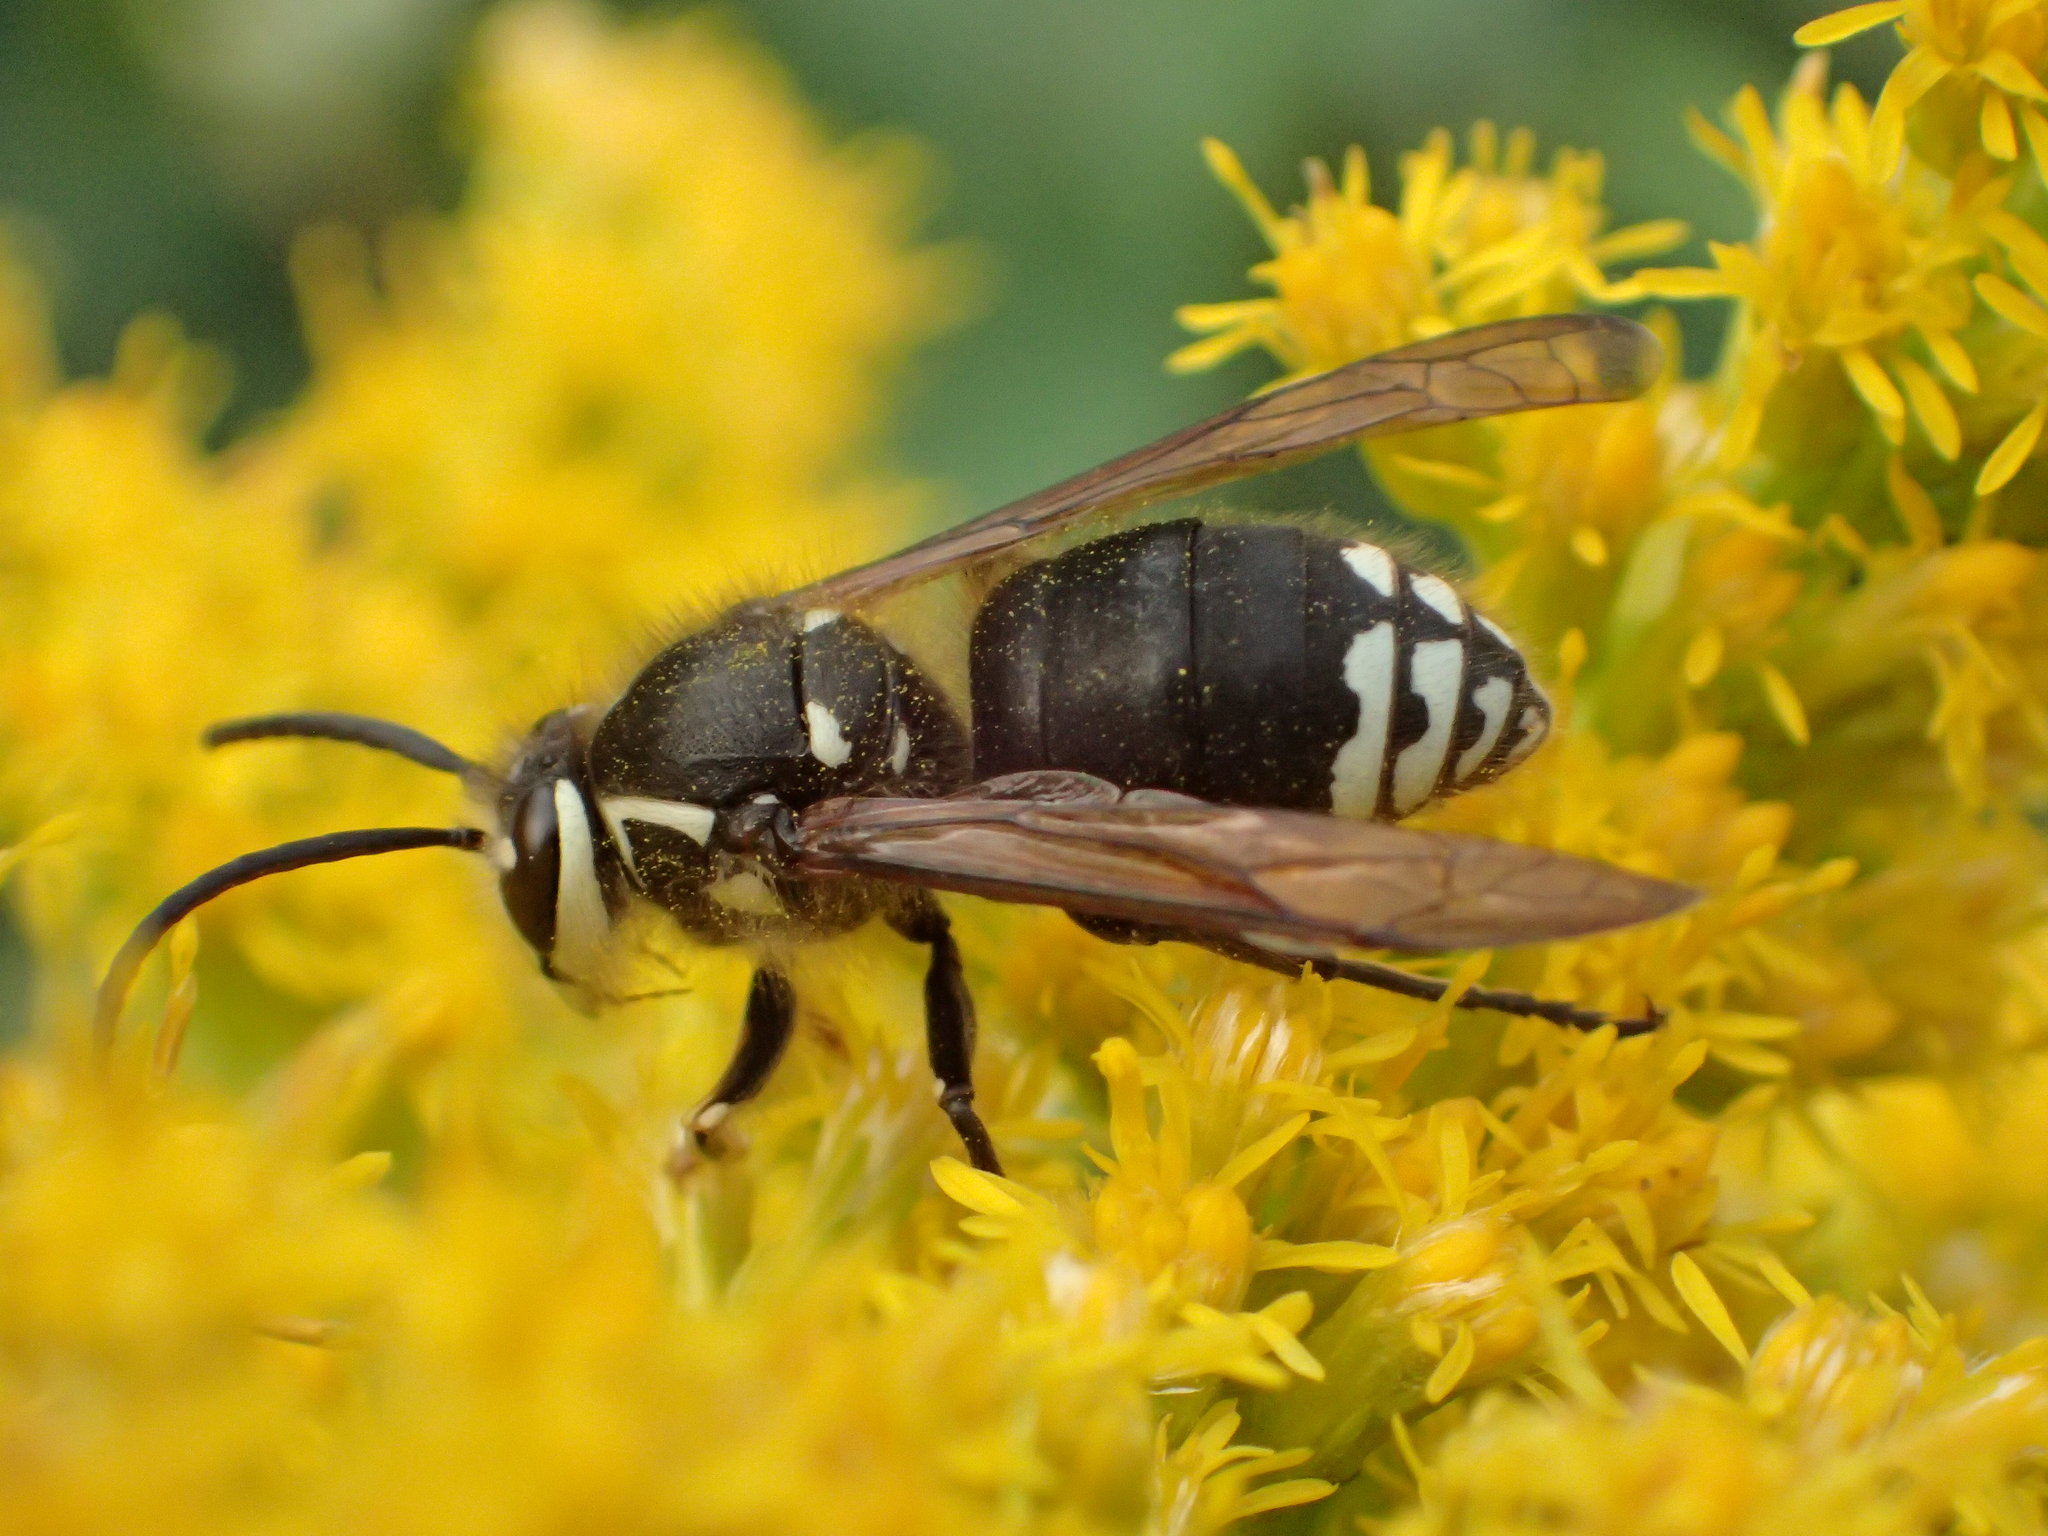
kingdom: Animalia
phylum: Arthropoda
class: Insecta
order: Hymenoptera
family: Vespidae
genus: Dolichovespula
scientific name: Dolichovespula maculata
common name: Bald-faced hornet
